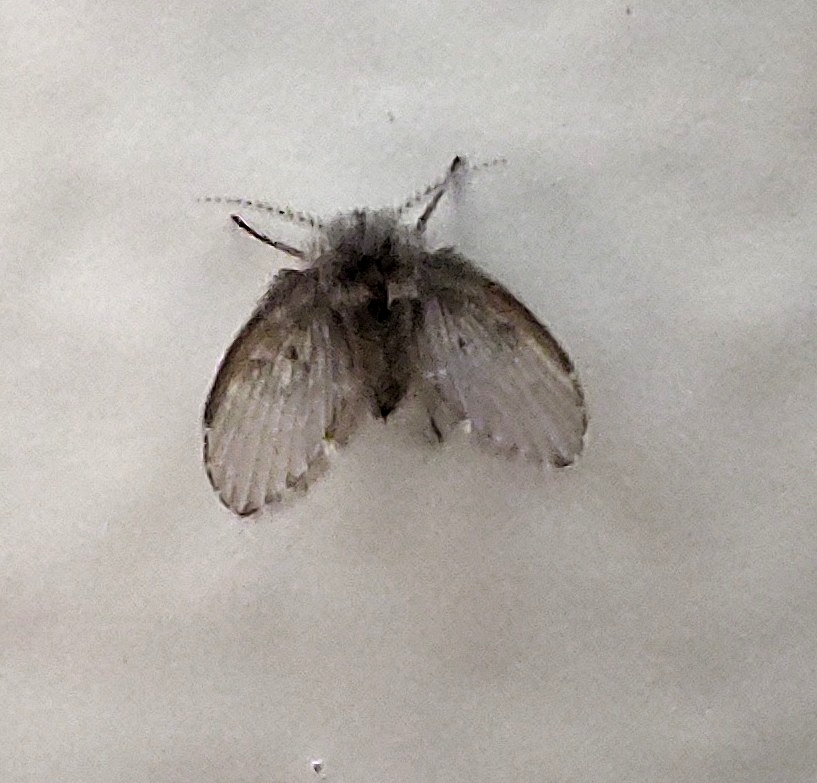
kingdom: Animalia
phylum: Arthropoda
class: Insecta
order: Diptera
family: Psychodidae
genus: Clogmia
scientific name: Clogmia albipunctatus
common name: White-spotted moth fly
